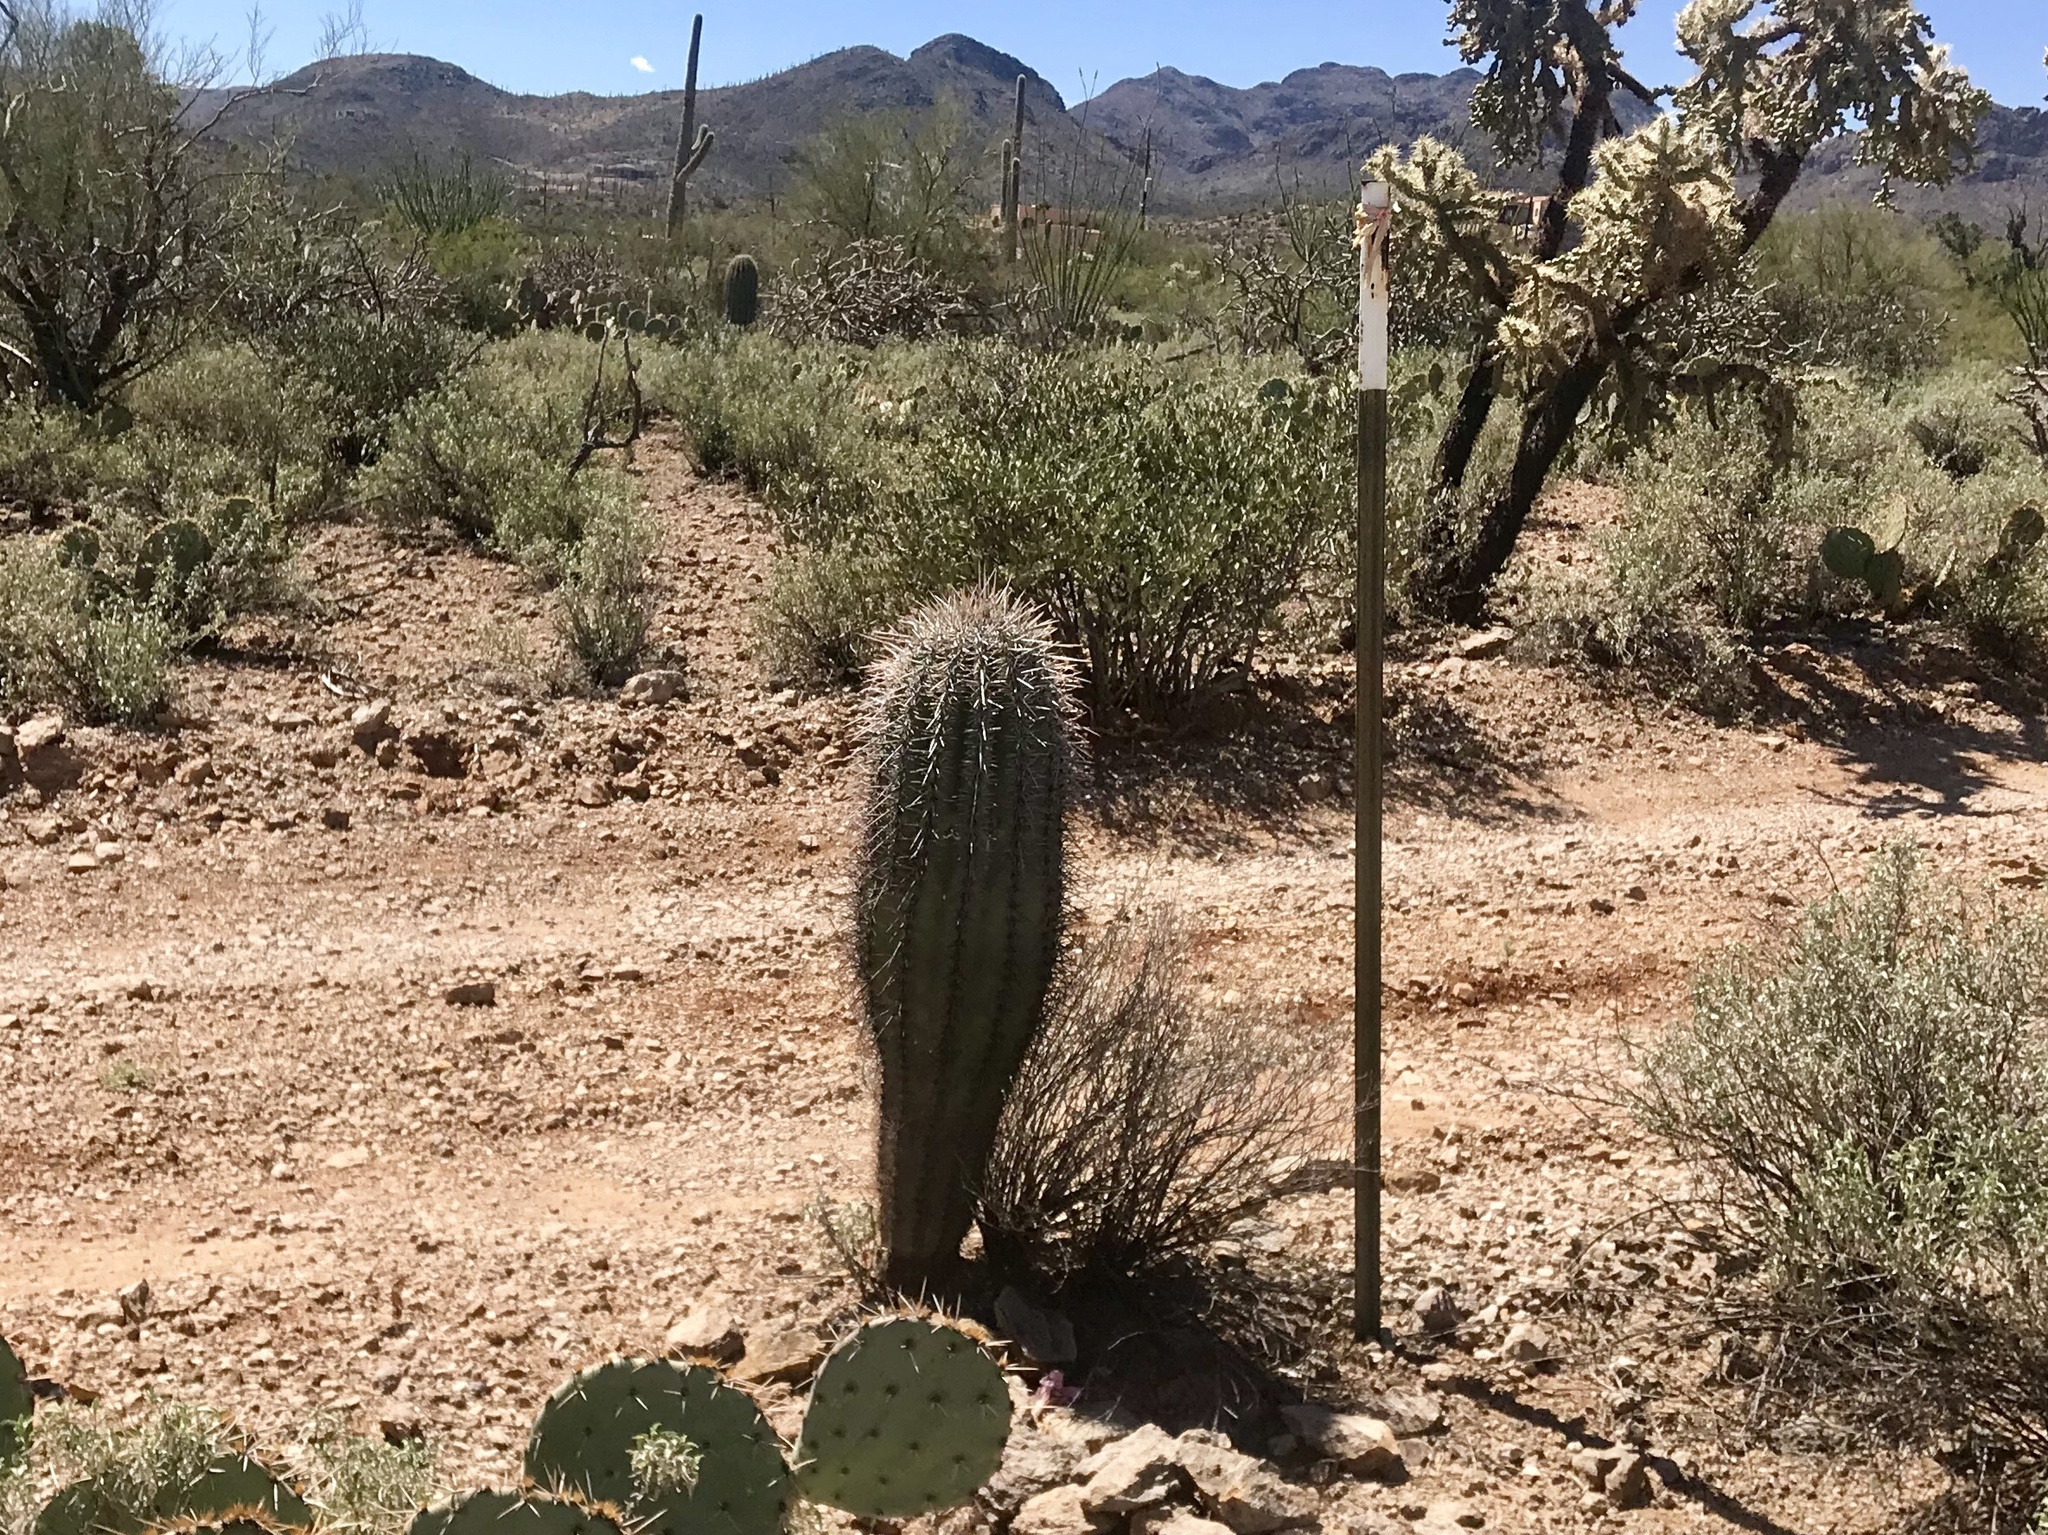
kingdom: Plantae
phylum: Tracheophyta
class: Magnoliopsida
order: Caryophyllales
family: Cactaceae
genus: Carnegiea
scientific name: Carnegiea gigantea
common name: Saguaro
